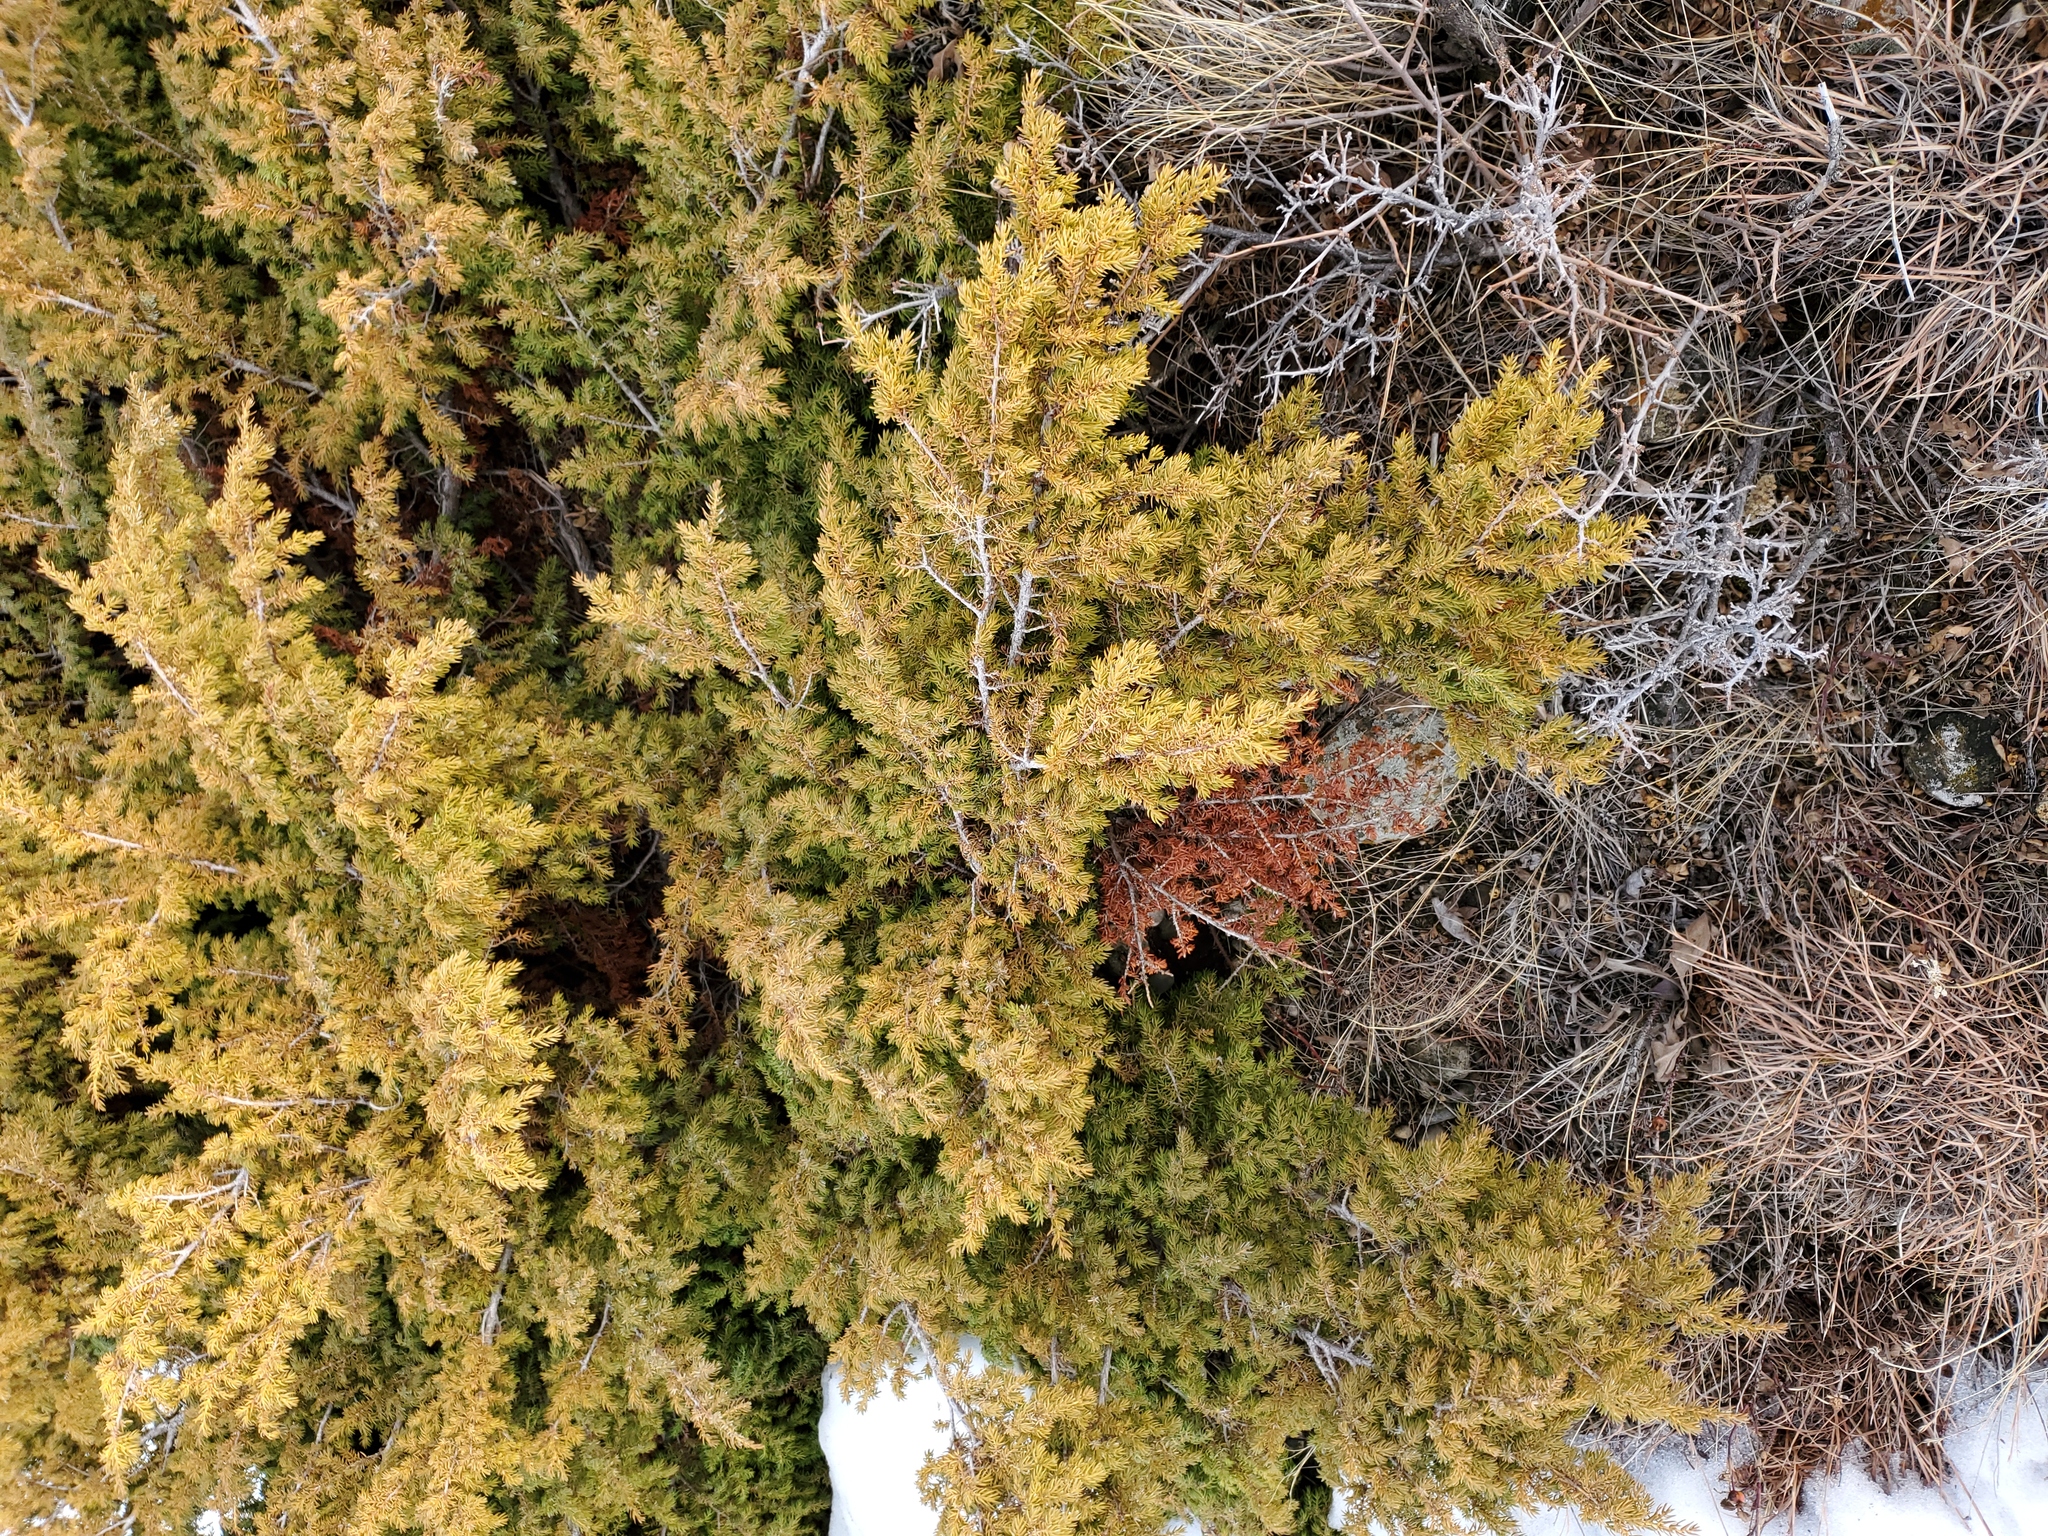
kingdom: Plantae
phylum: Tracheophyta
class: Pinopsida
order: Pinales
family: Cupressaceae
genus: Juniperus
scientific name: Juniperus communis
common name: Common juniper
